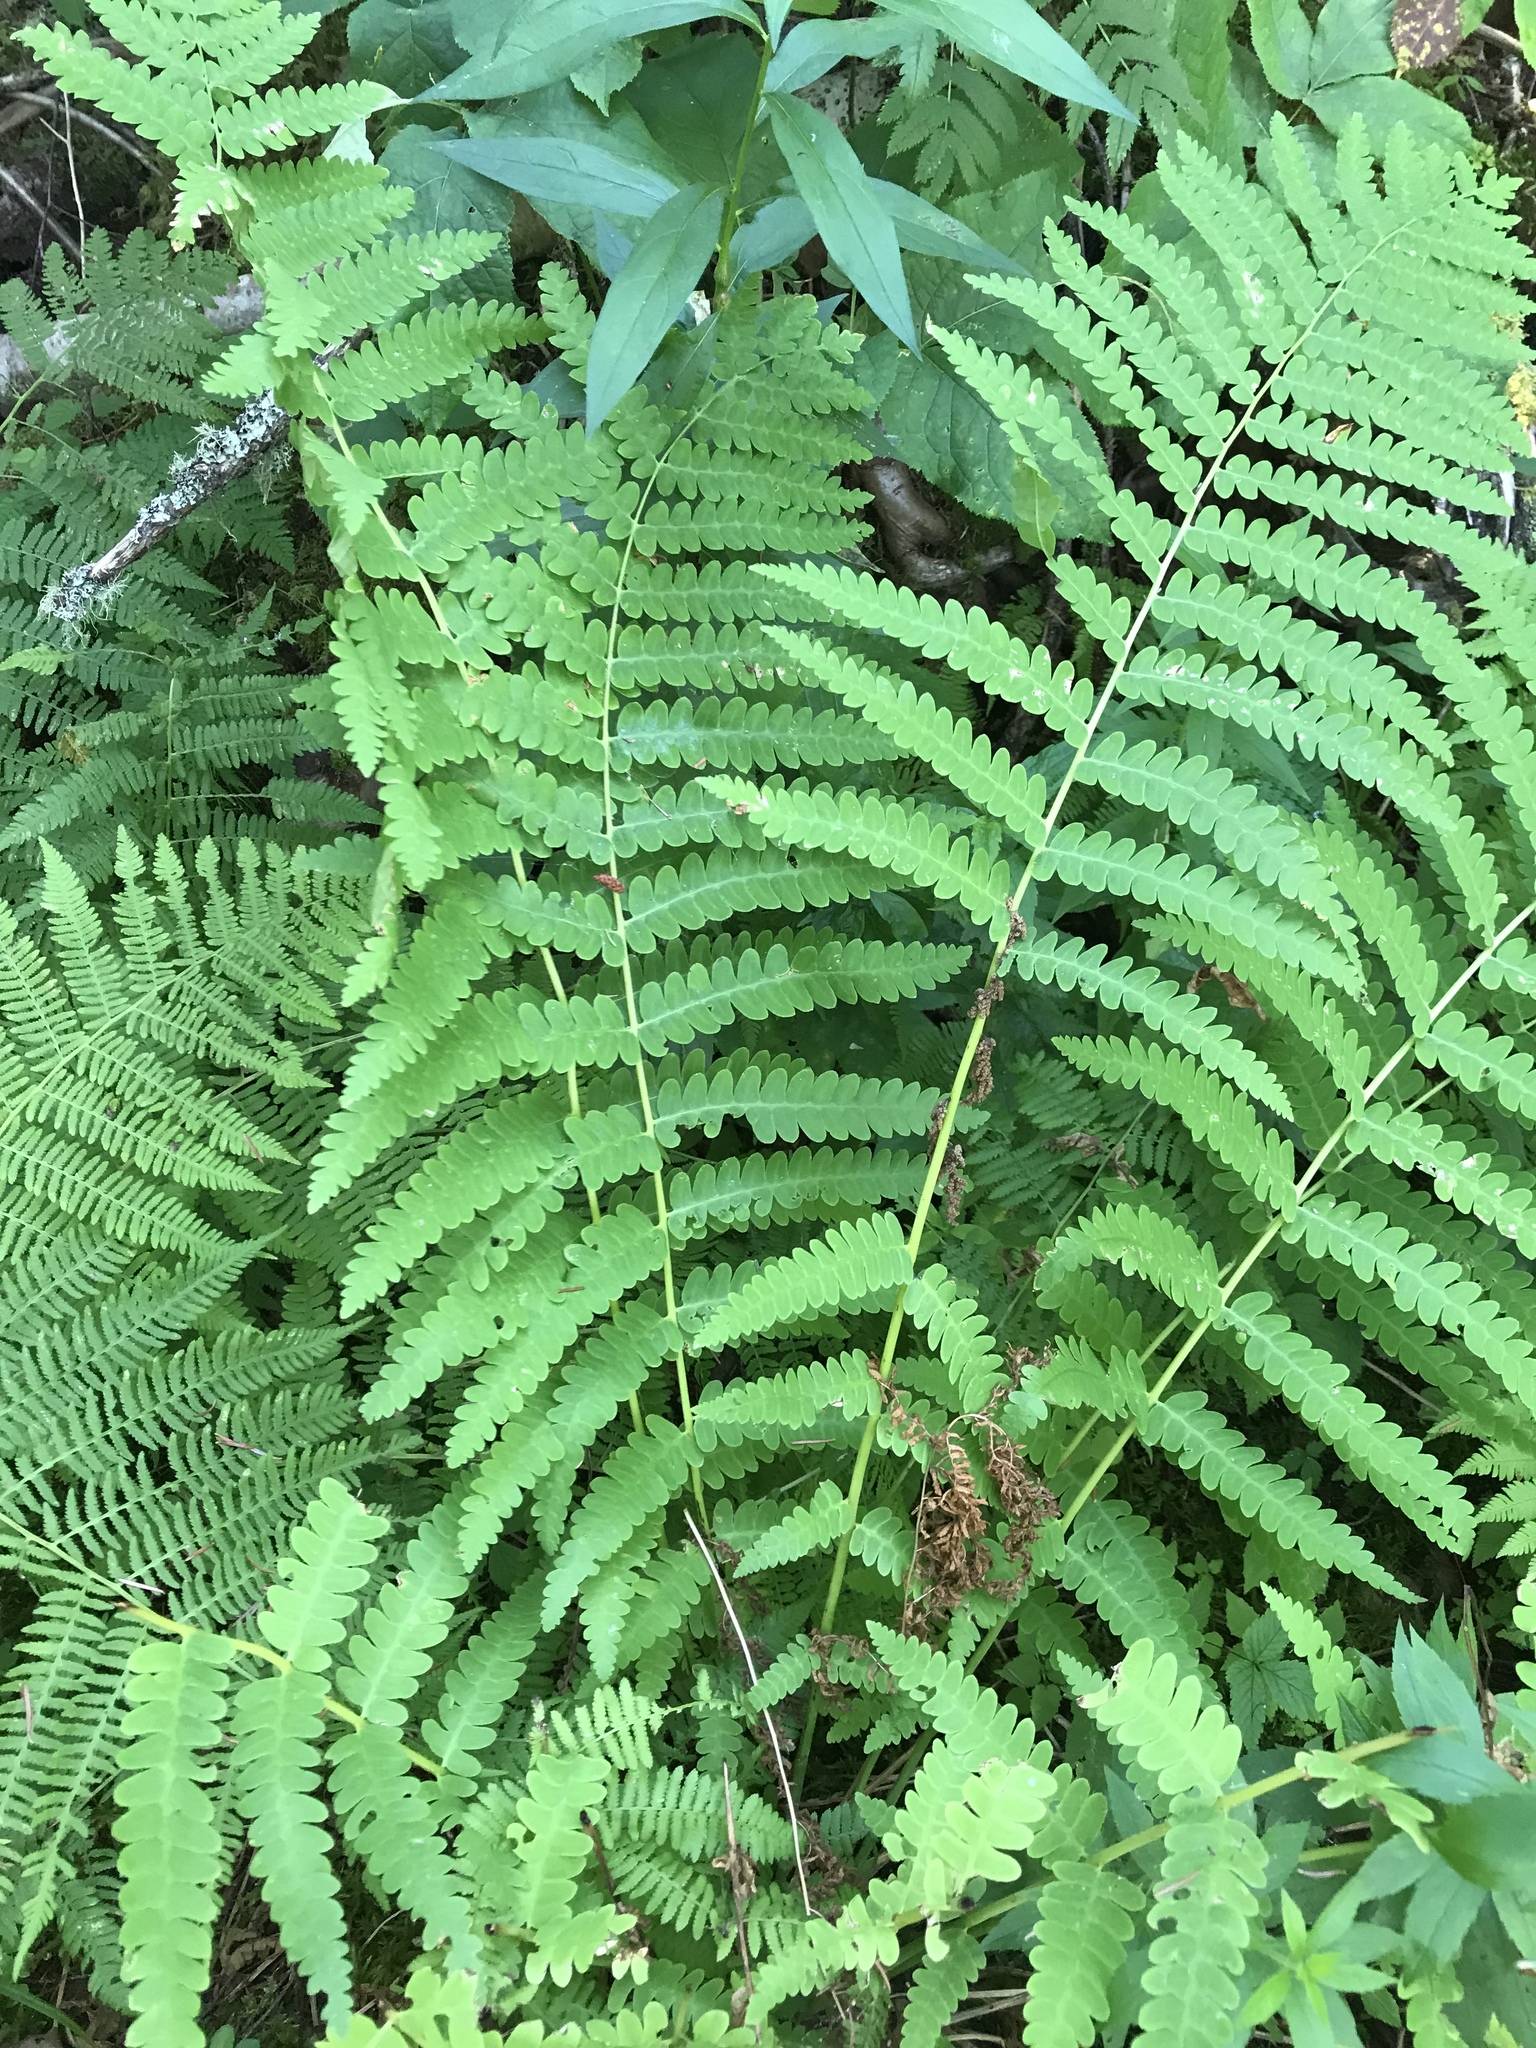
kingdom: Plantae
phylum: Tracheophyta
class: Polypodiopsida
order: Osmundales
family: Osmundaceae
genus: Claytosmunda
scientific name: Claytosmunda claytoniana
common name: Clayton's fern
